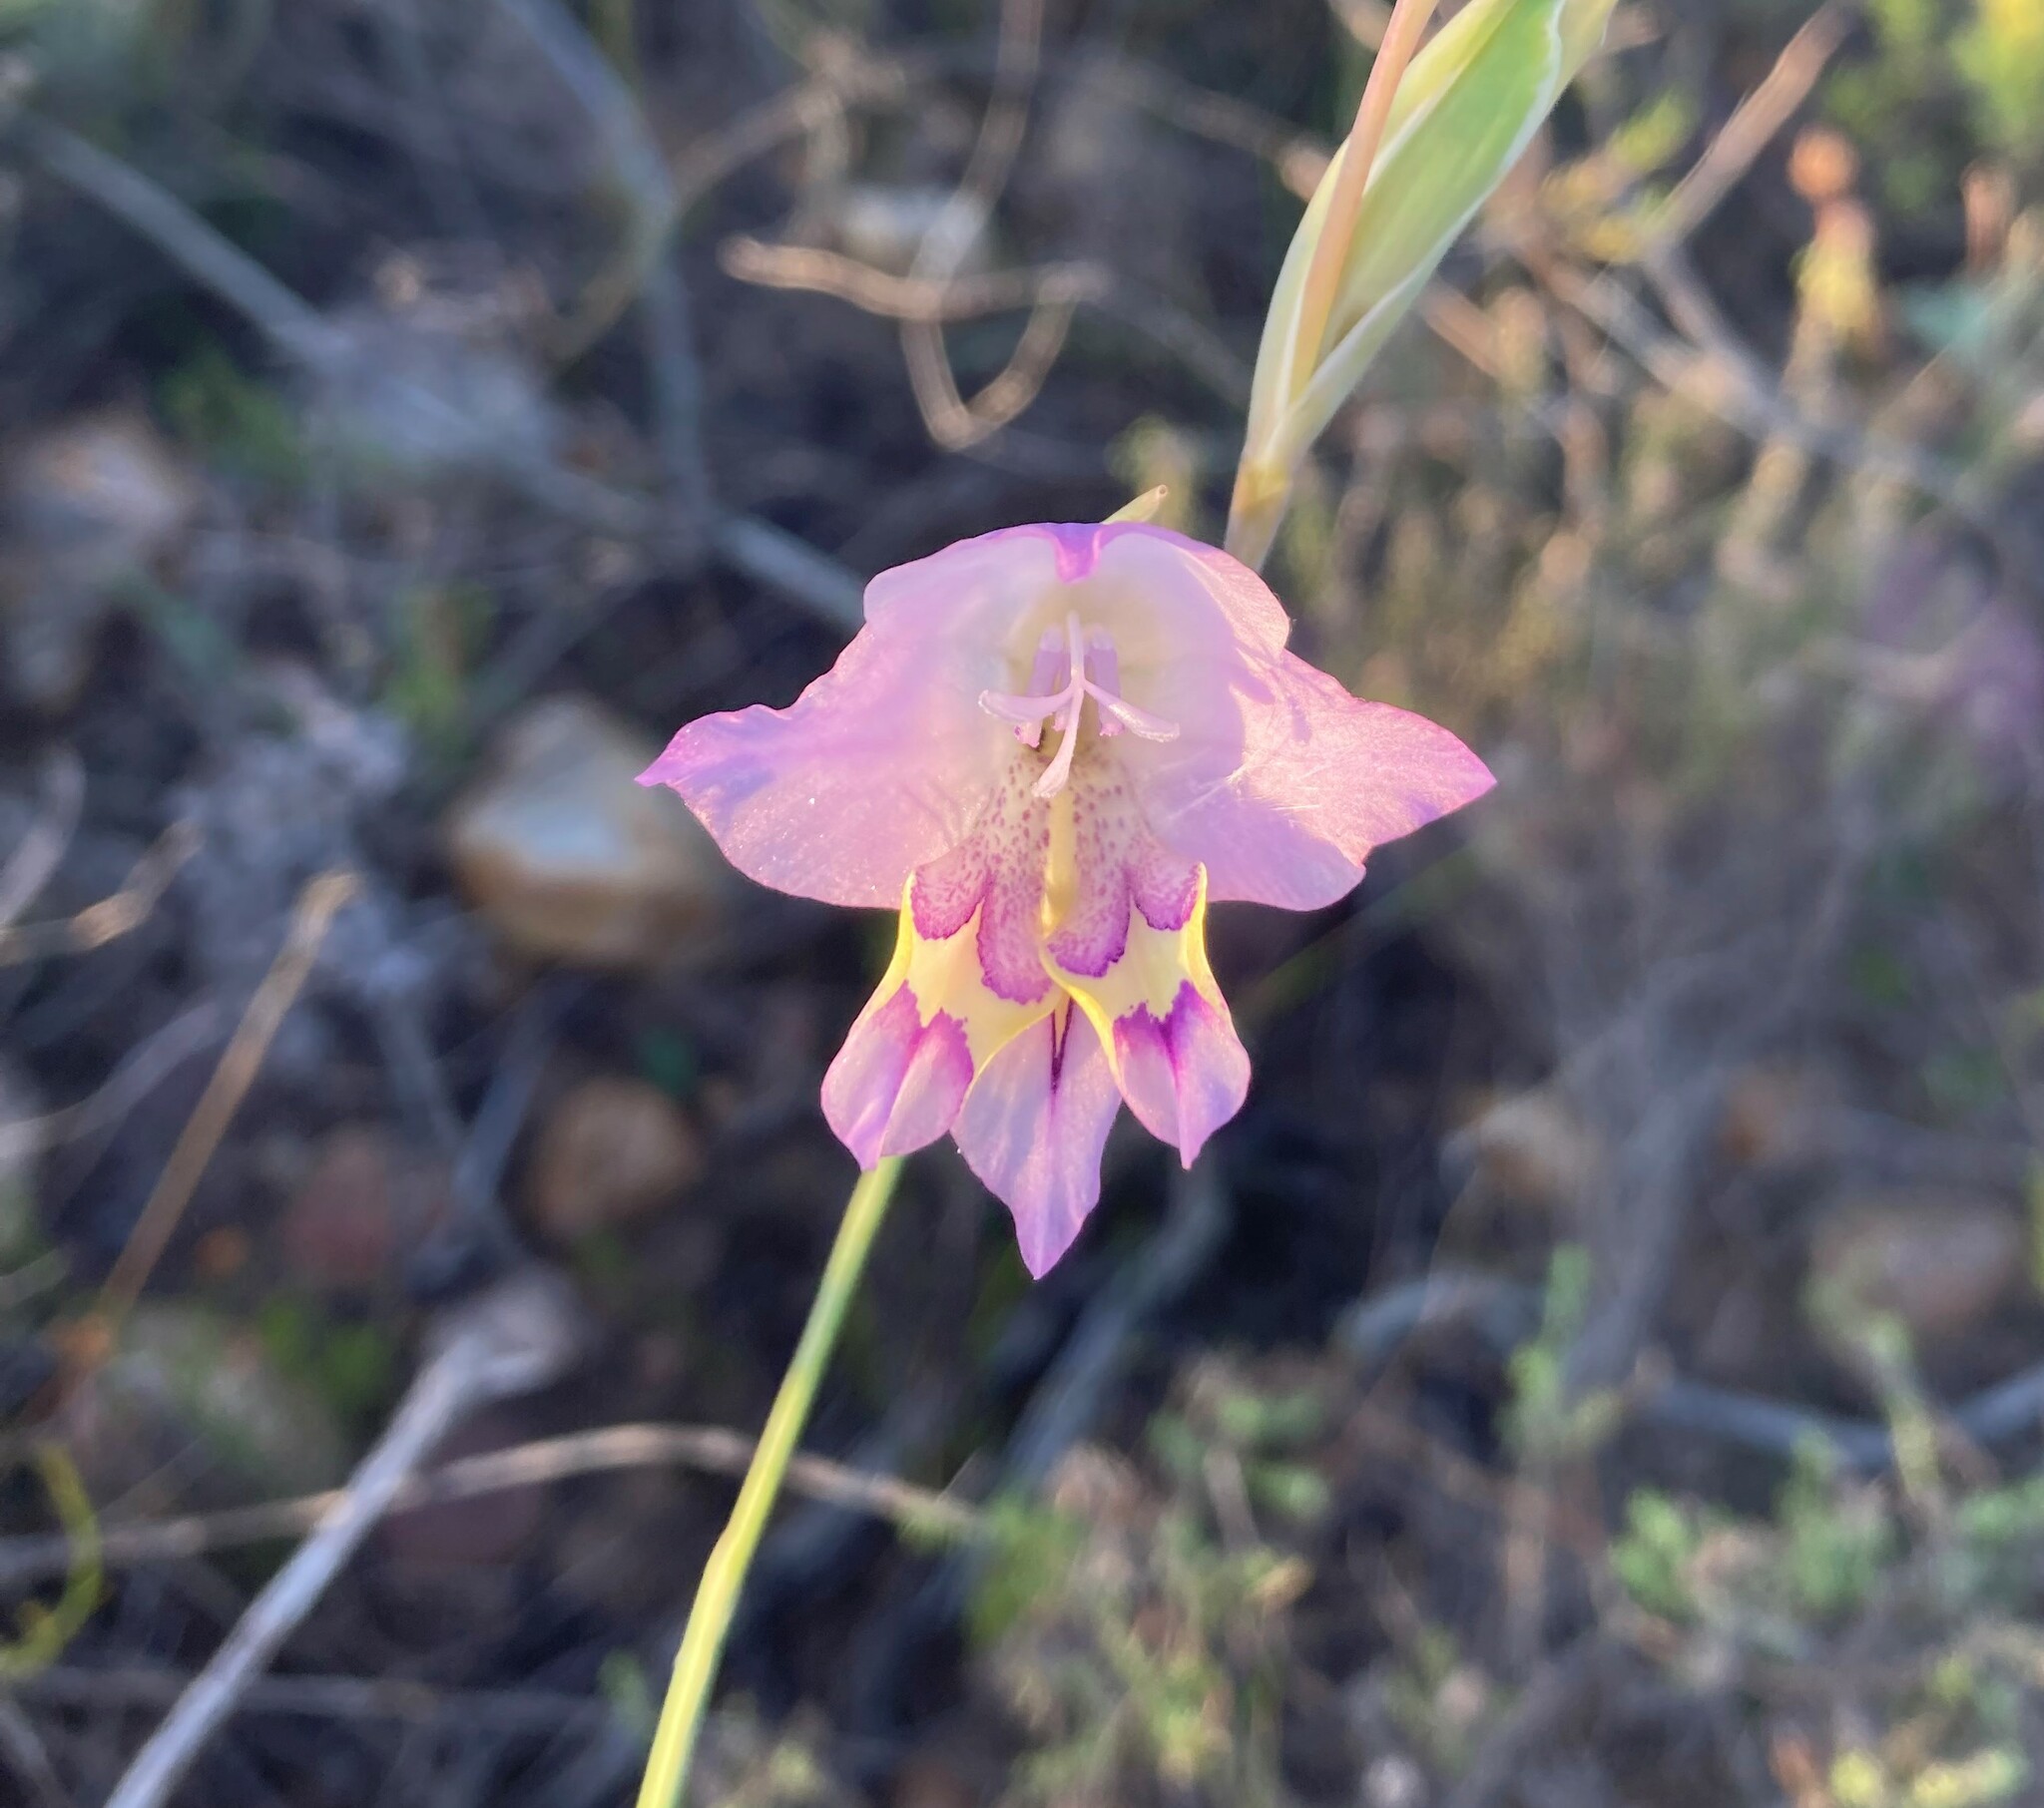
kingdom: Plantae
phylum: Tracheophyta
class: Liliopsida
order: Asparagales
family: Iridaceae
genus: Gladiolus
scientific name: Gladiolus rogersii
